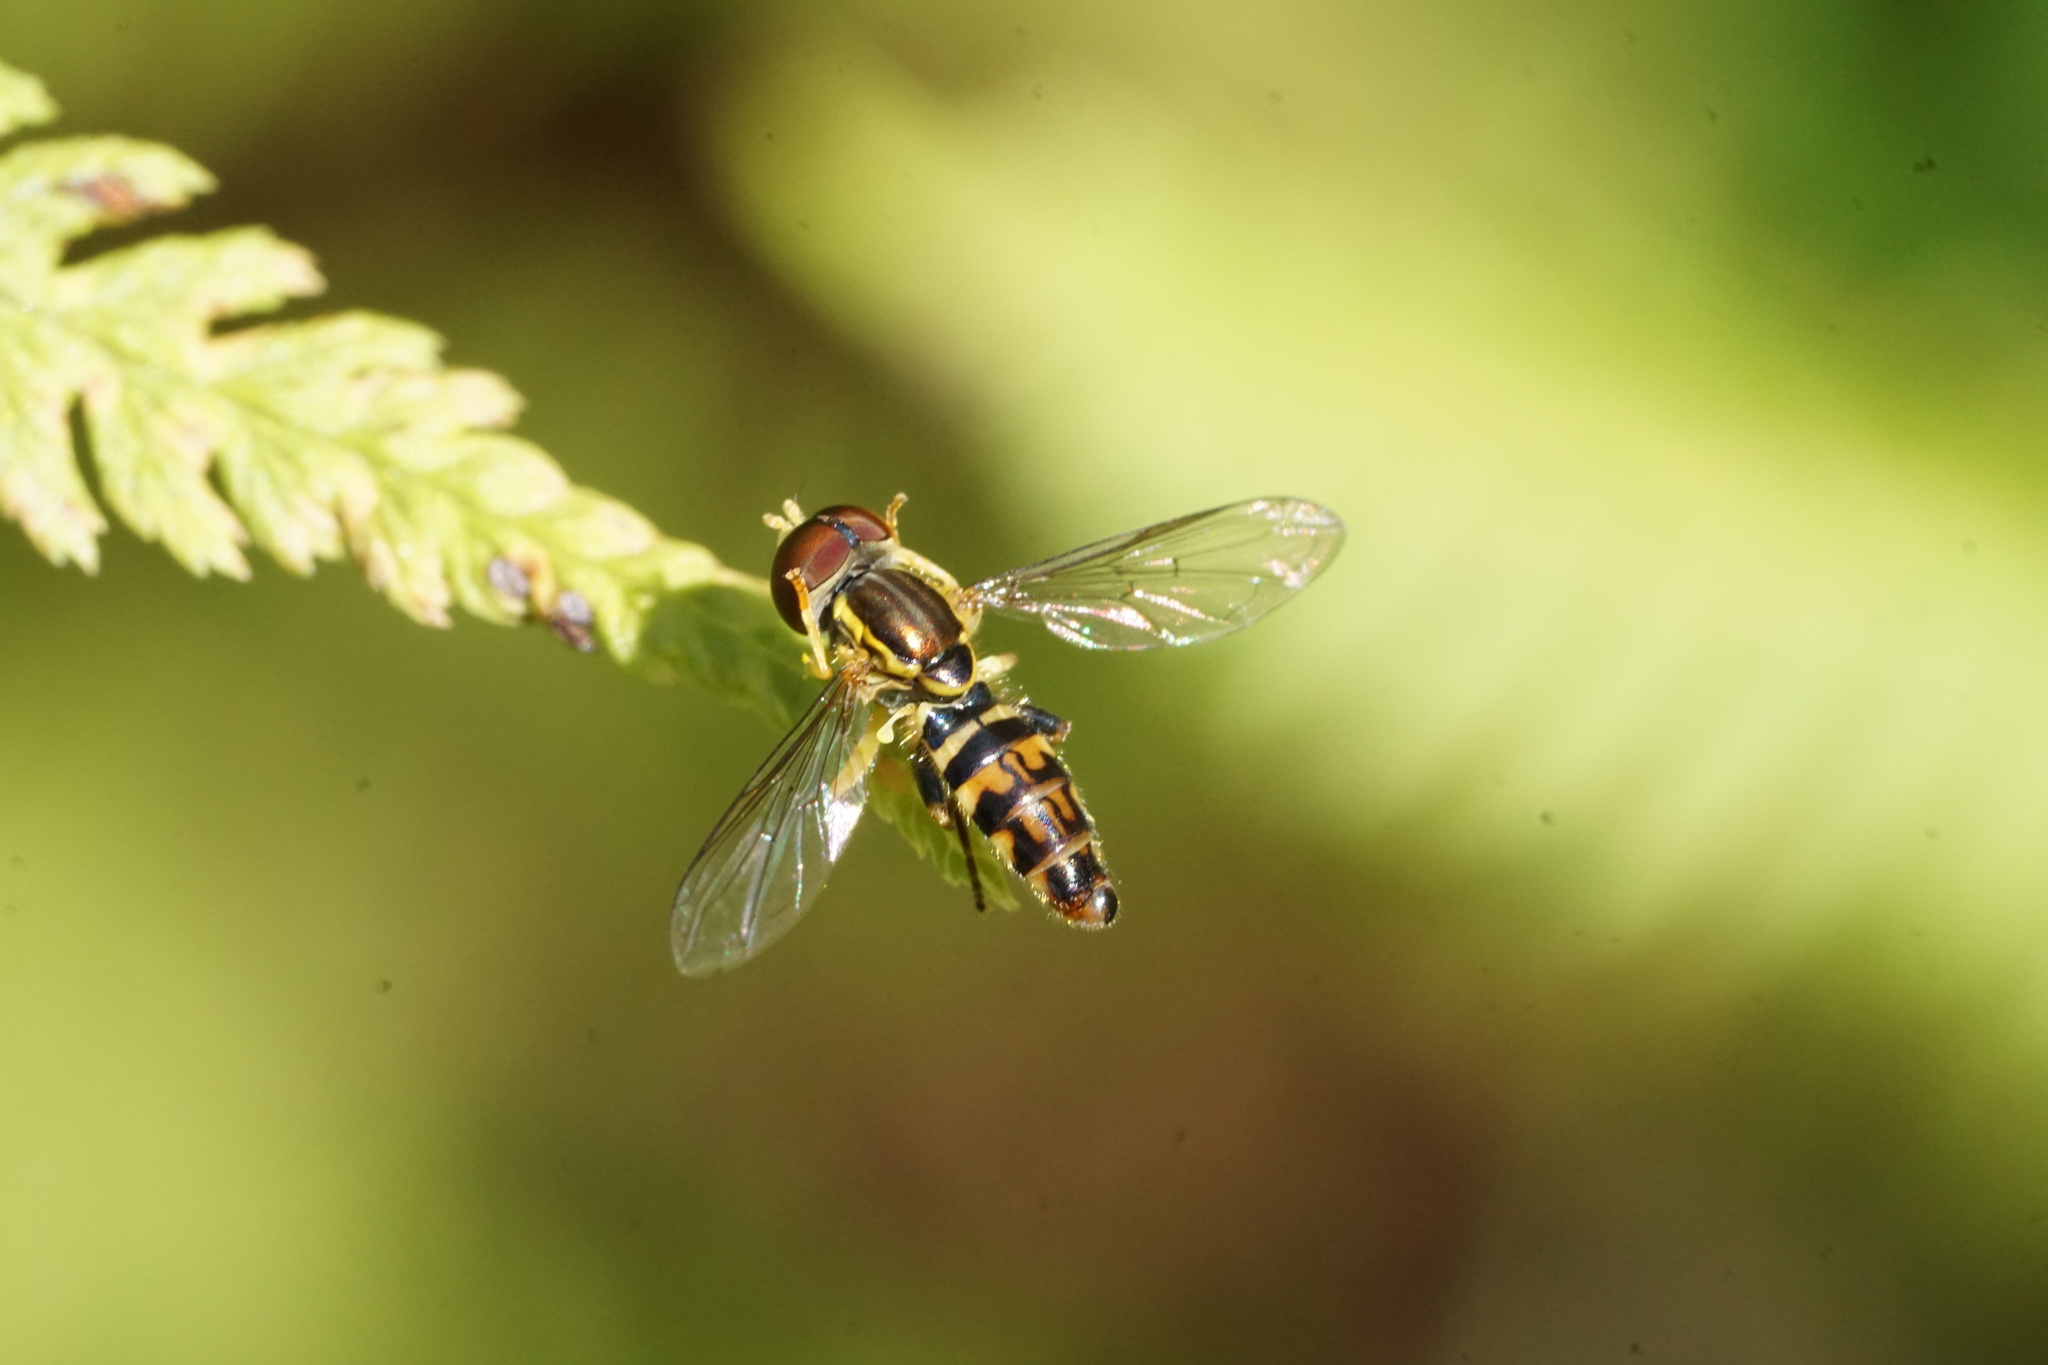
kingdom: Animalia
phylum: Arthropoda
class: Insecta
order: Diptera
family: Syrphidae
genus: Toxomerus
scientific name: Toxomerus geminatus
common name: Eastern calligrapher
